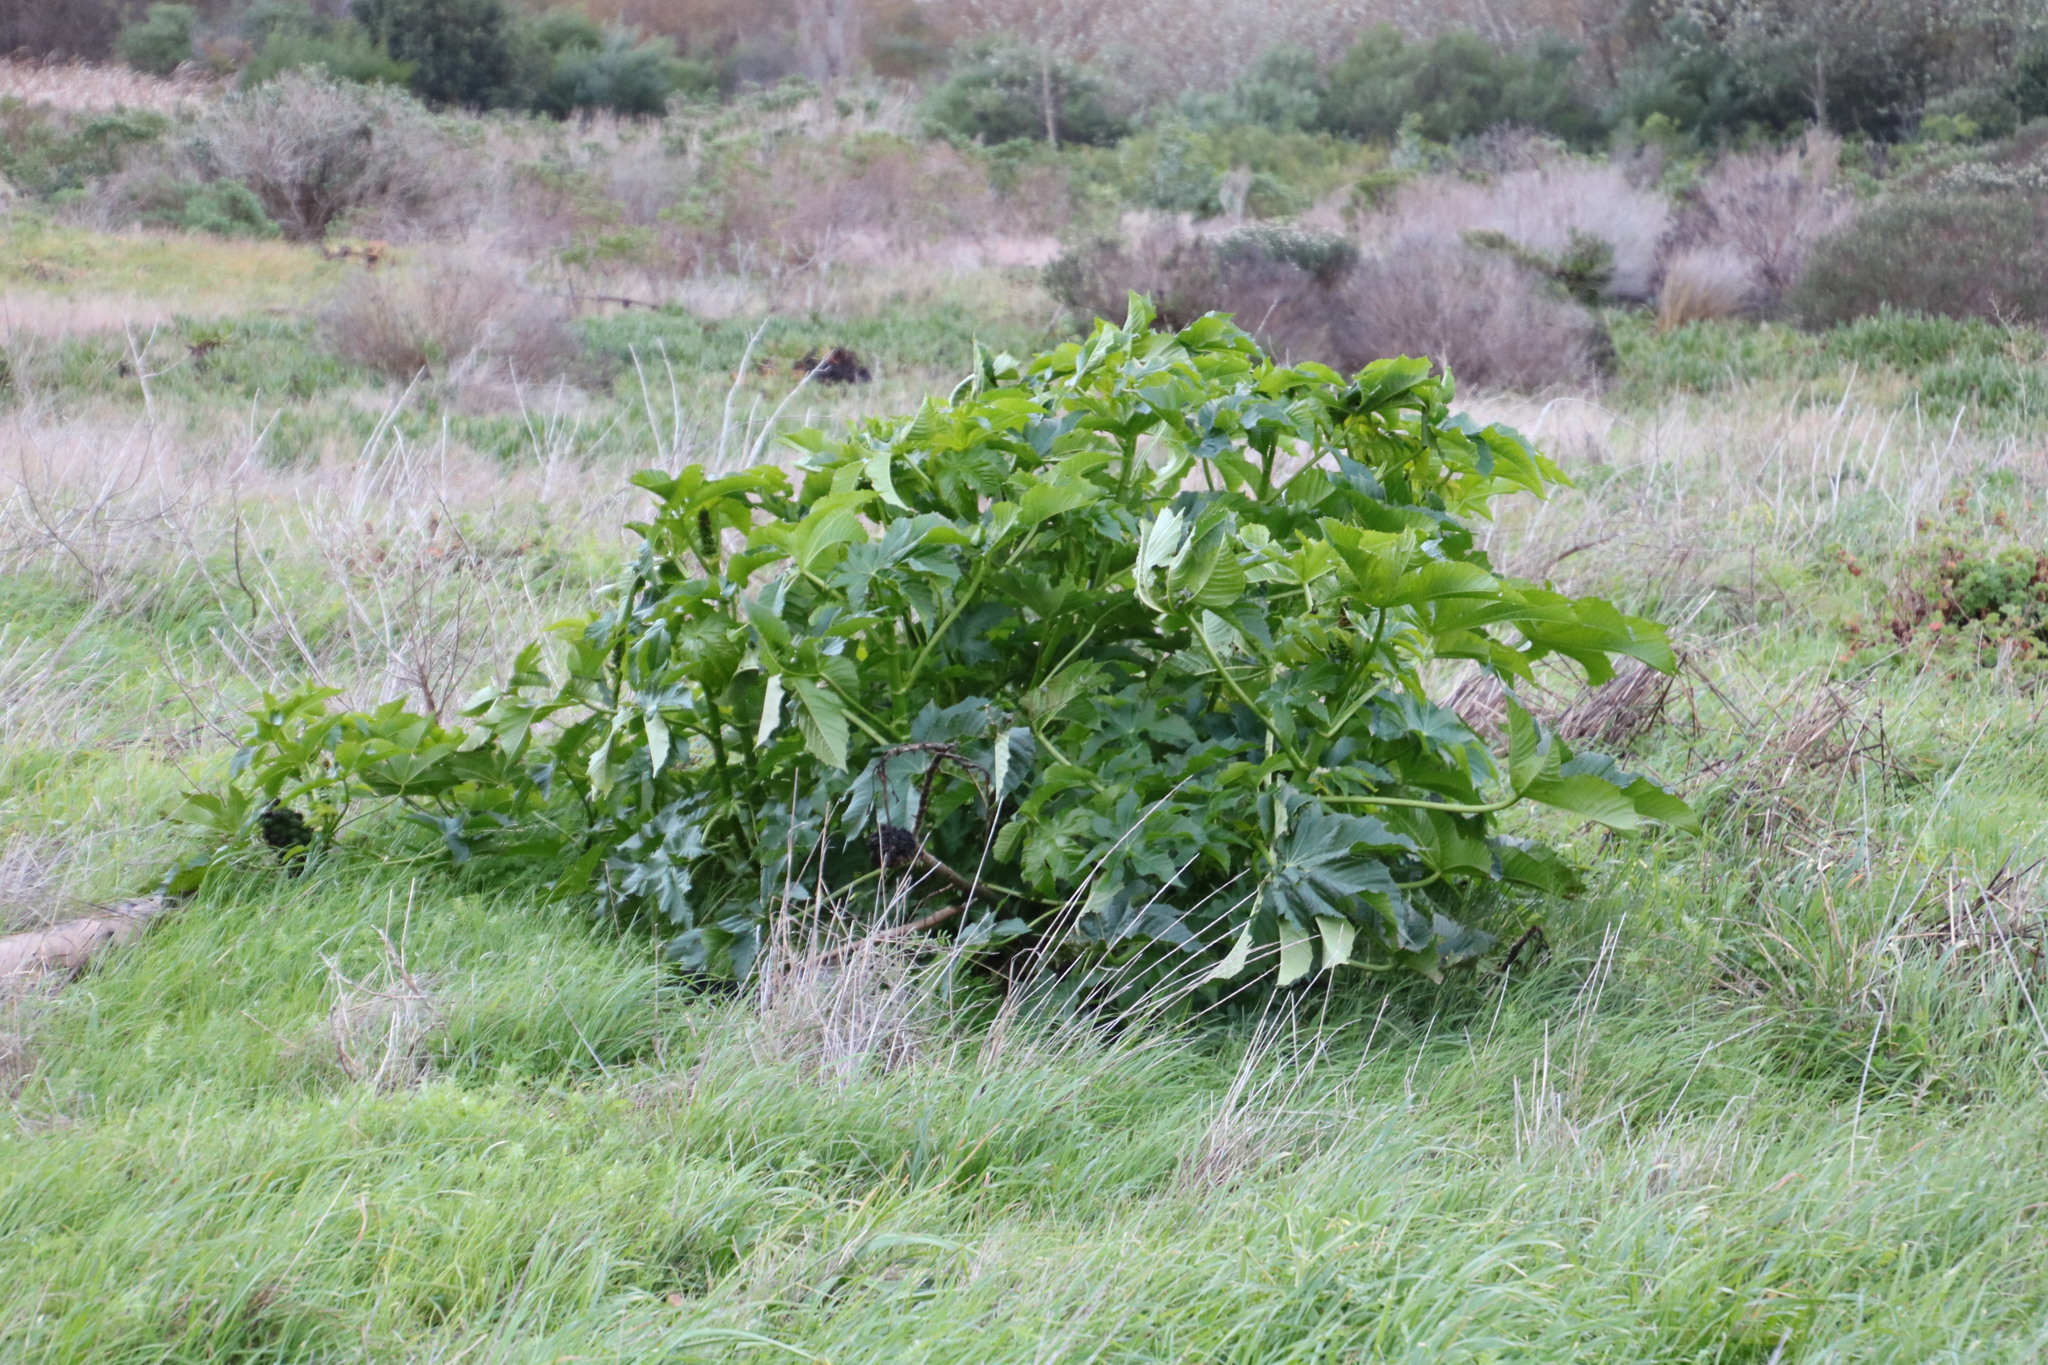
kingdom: Plantae
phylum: Tracheophyta
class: Magnoliopsida
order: Malpighiales
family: Euphorbiaceae
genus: Ricinus
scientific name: Ricinus communis
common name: Castor-oil-plant
